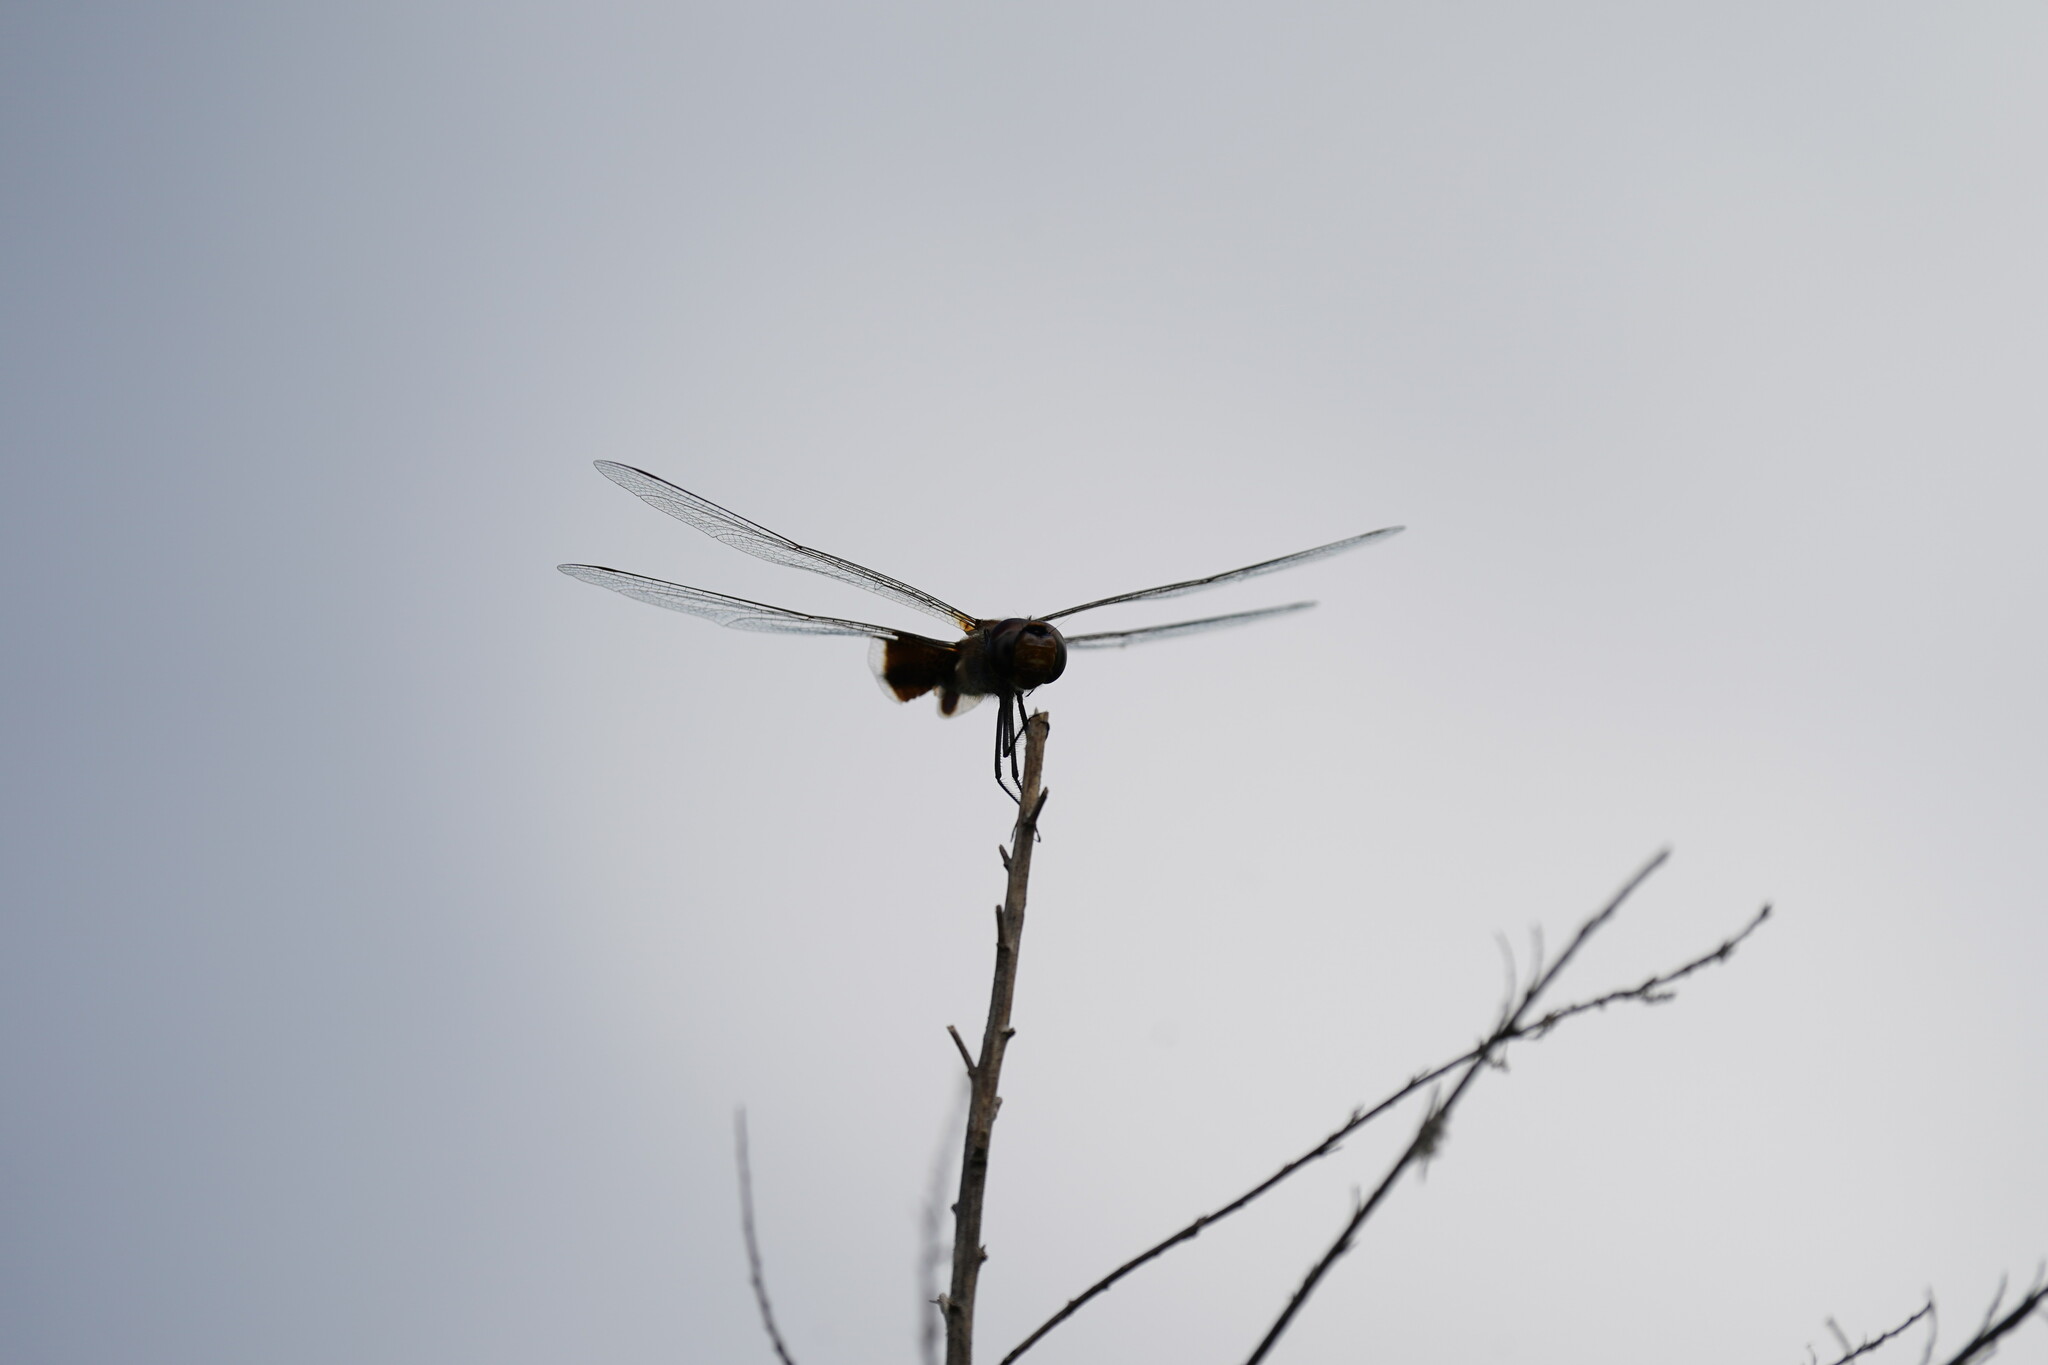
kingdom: Animalia
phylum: Arthropoda
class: Insecta
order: Odonata
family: Libellulidae
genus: Tramea
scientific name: Tramea carolina
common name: Carolina saddlebags
